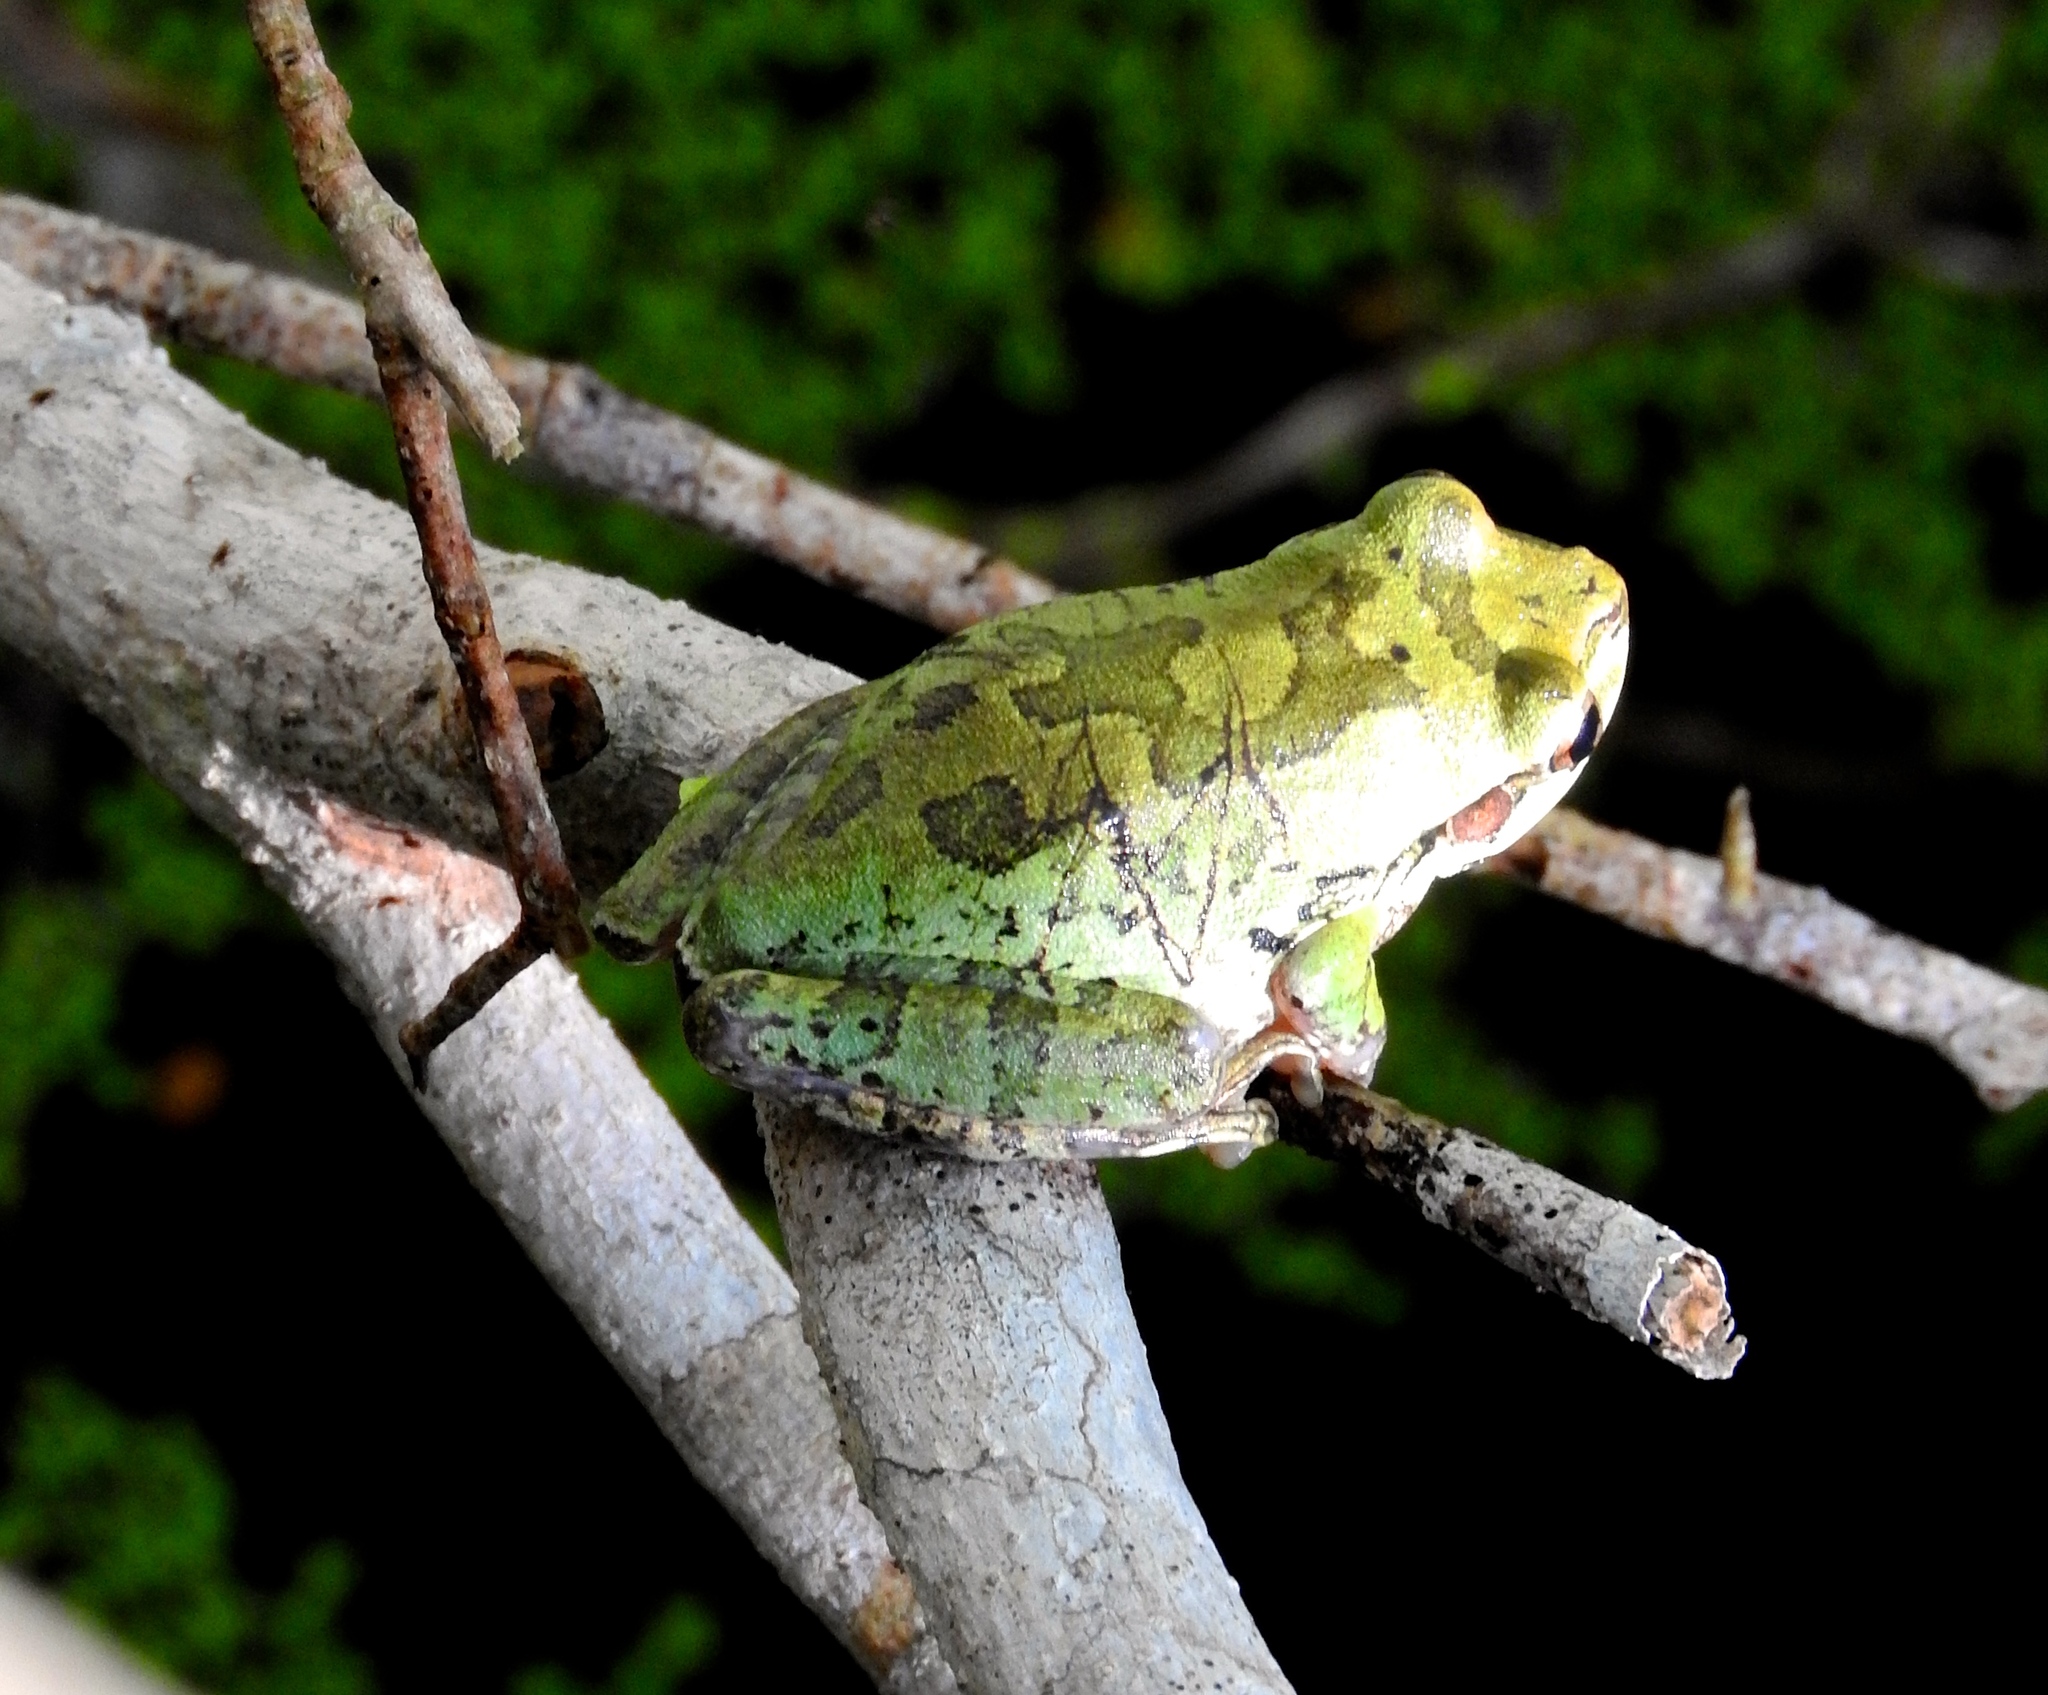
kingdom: Animalia
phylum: Chordata
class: Amphibia
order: Anura
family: Hylidae
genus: Smilisca
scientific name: Smilisca baudinii
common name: Mexican smilisca
